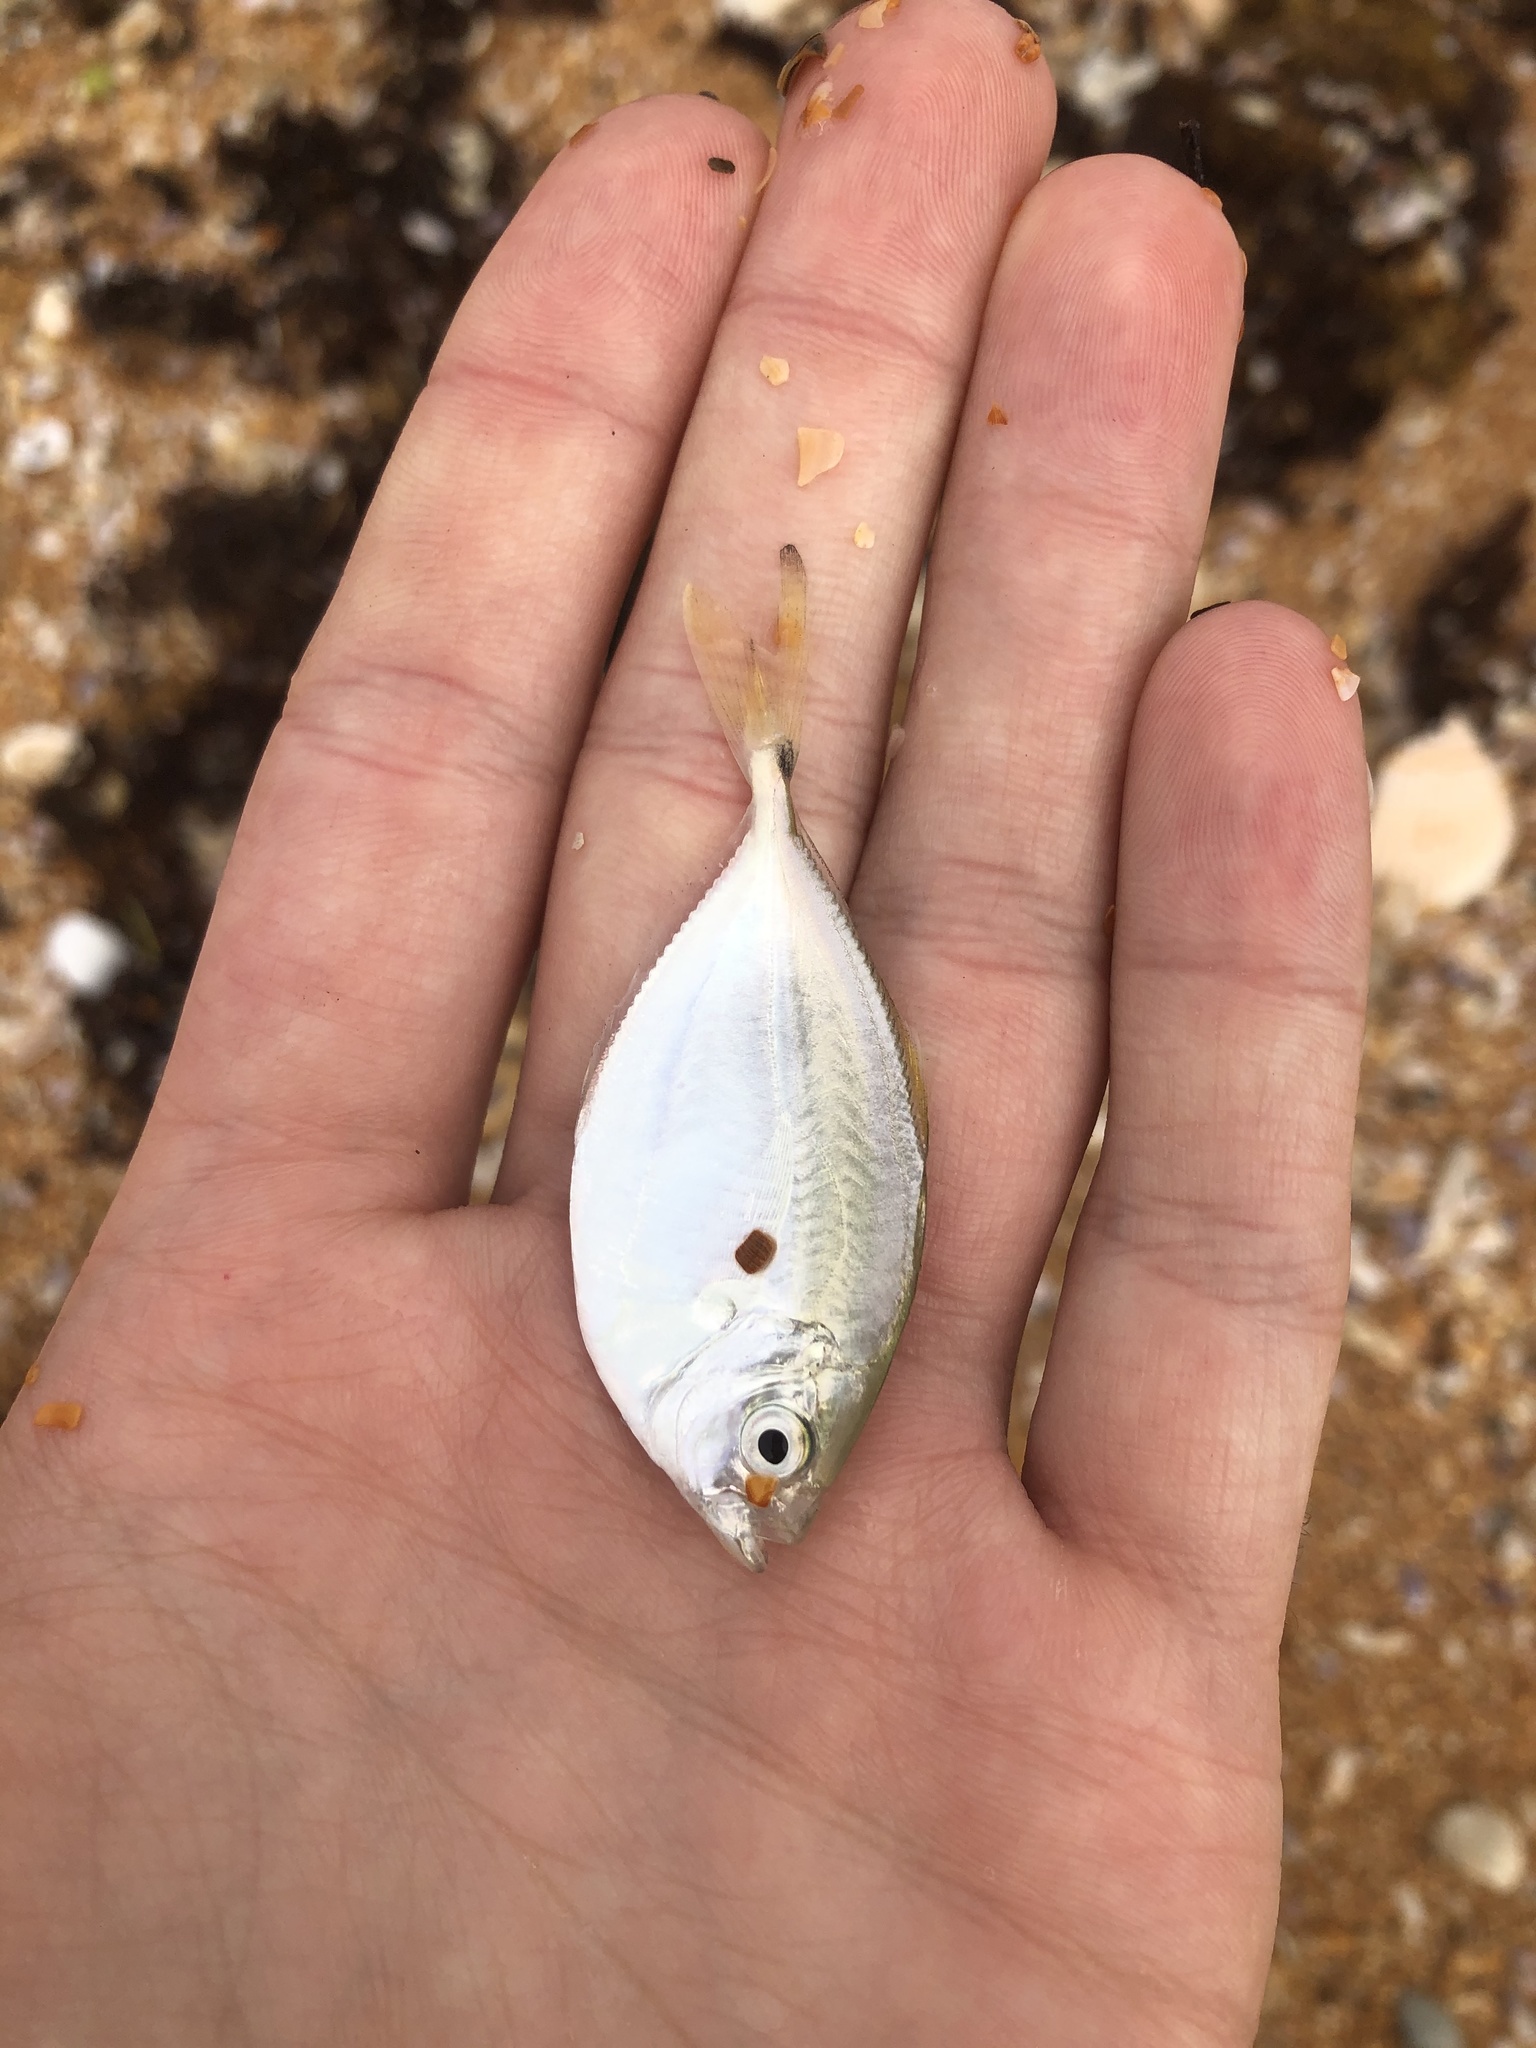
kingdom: Animalia
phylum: Chordata
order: Perciformes
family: Carangidae
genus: Chloroscombrus
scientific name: Chloroscombrus chrysurus
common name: Bumper
